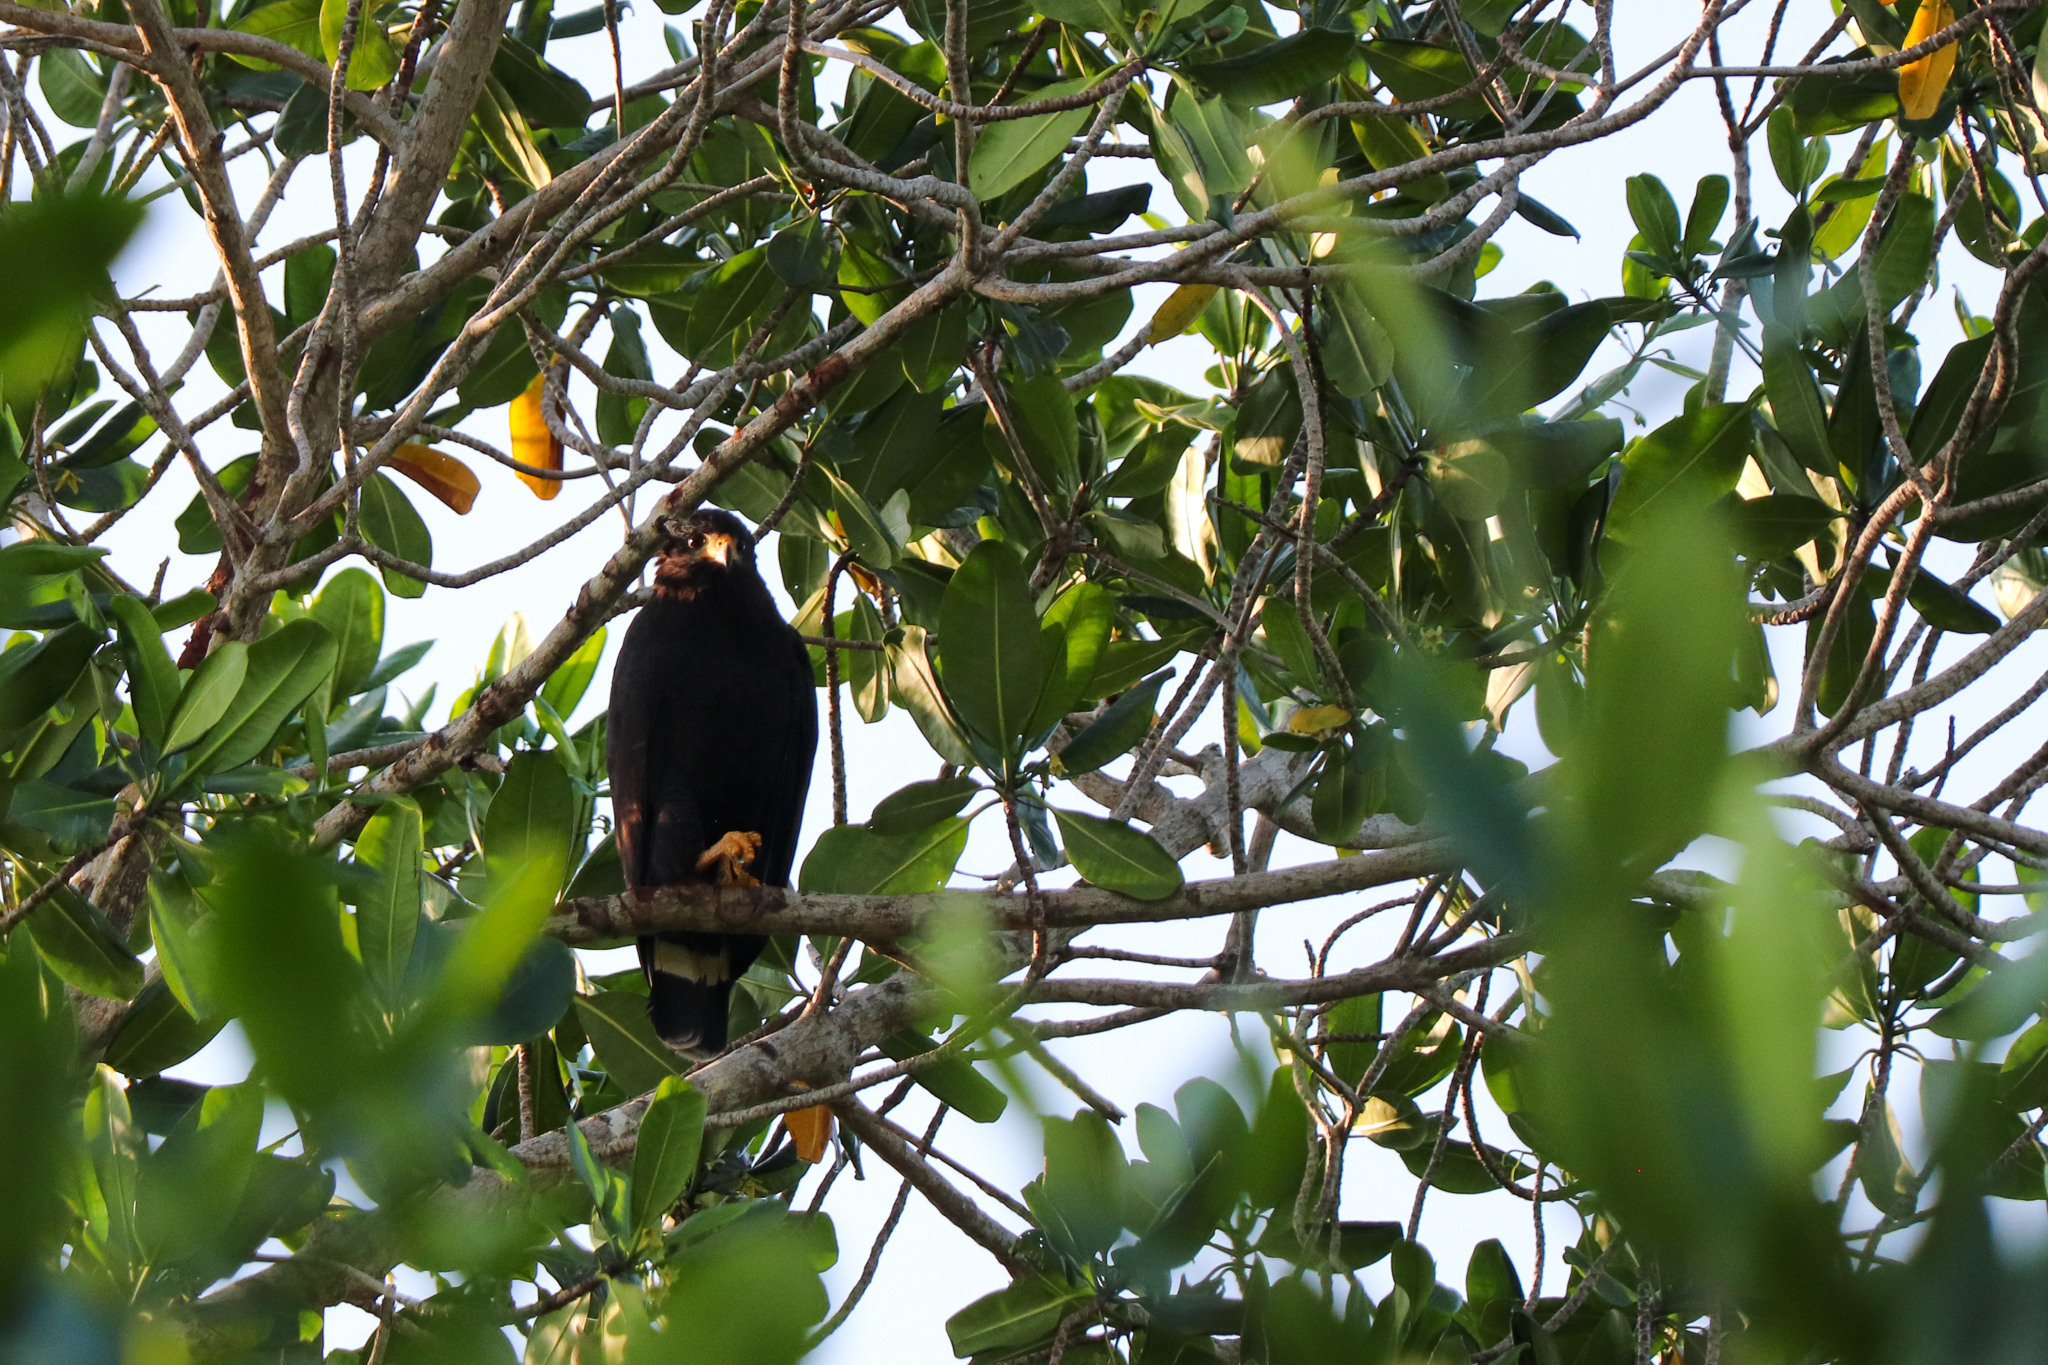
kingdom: Animalia
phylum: Chordata
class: Aves
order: Accipitriformes
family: Accipitridae
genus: Buteogallus
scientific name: Buteogallus anthracinus
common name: Common black hawk
